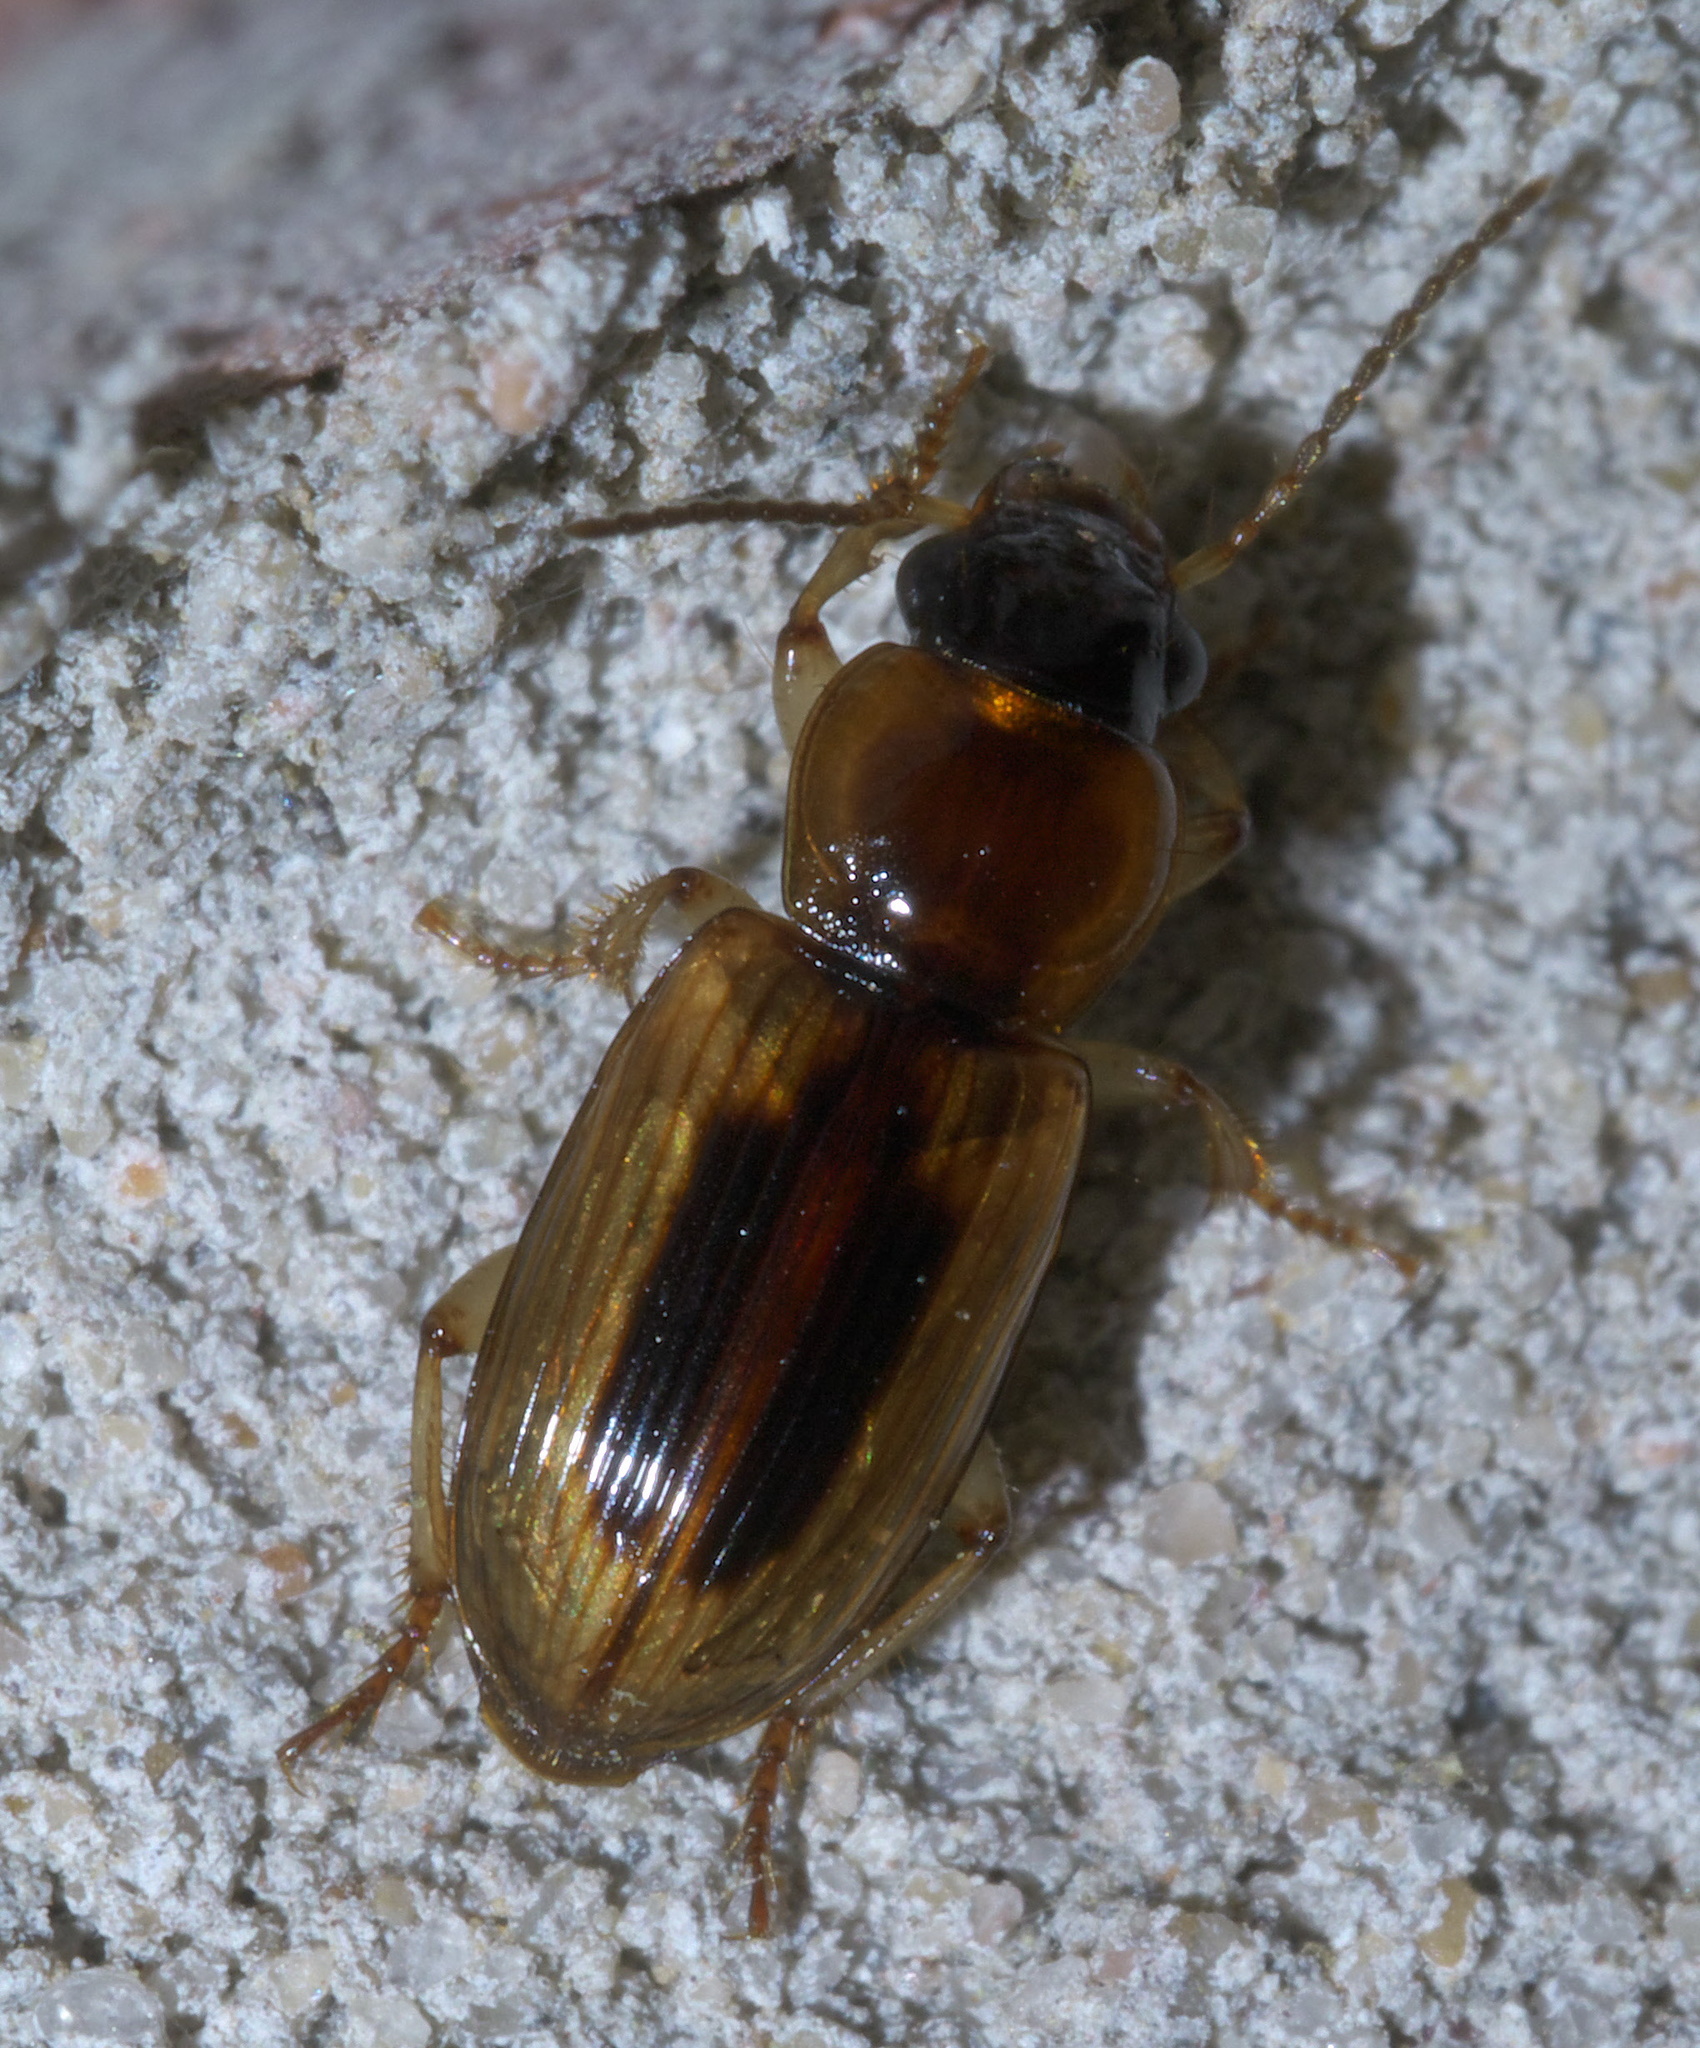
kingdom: Animalia
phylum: Arthropoda
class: Insecta
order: Coleoptera
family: Carabidae
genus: Stenolophus
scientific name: Stenolophus lecontei
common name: Leconte's seedcorn beetle
